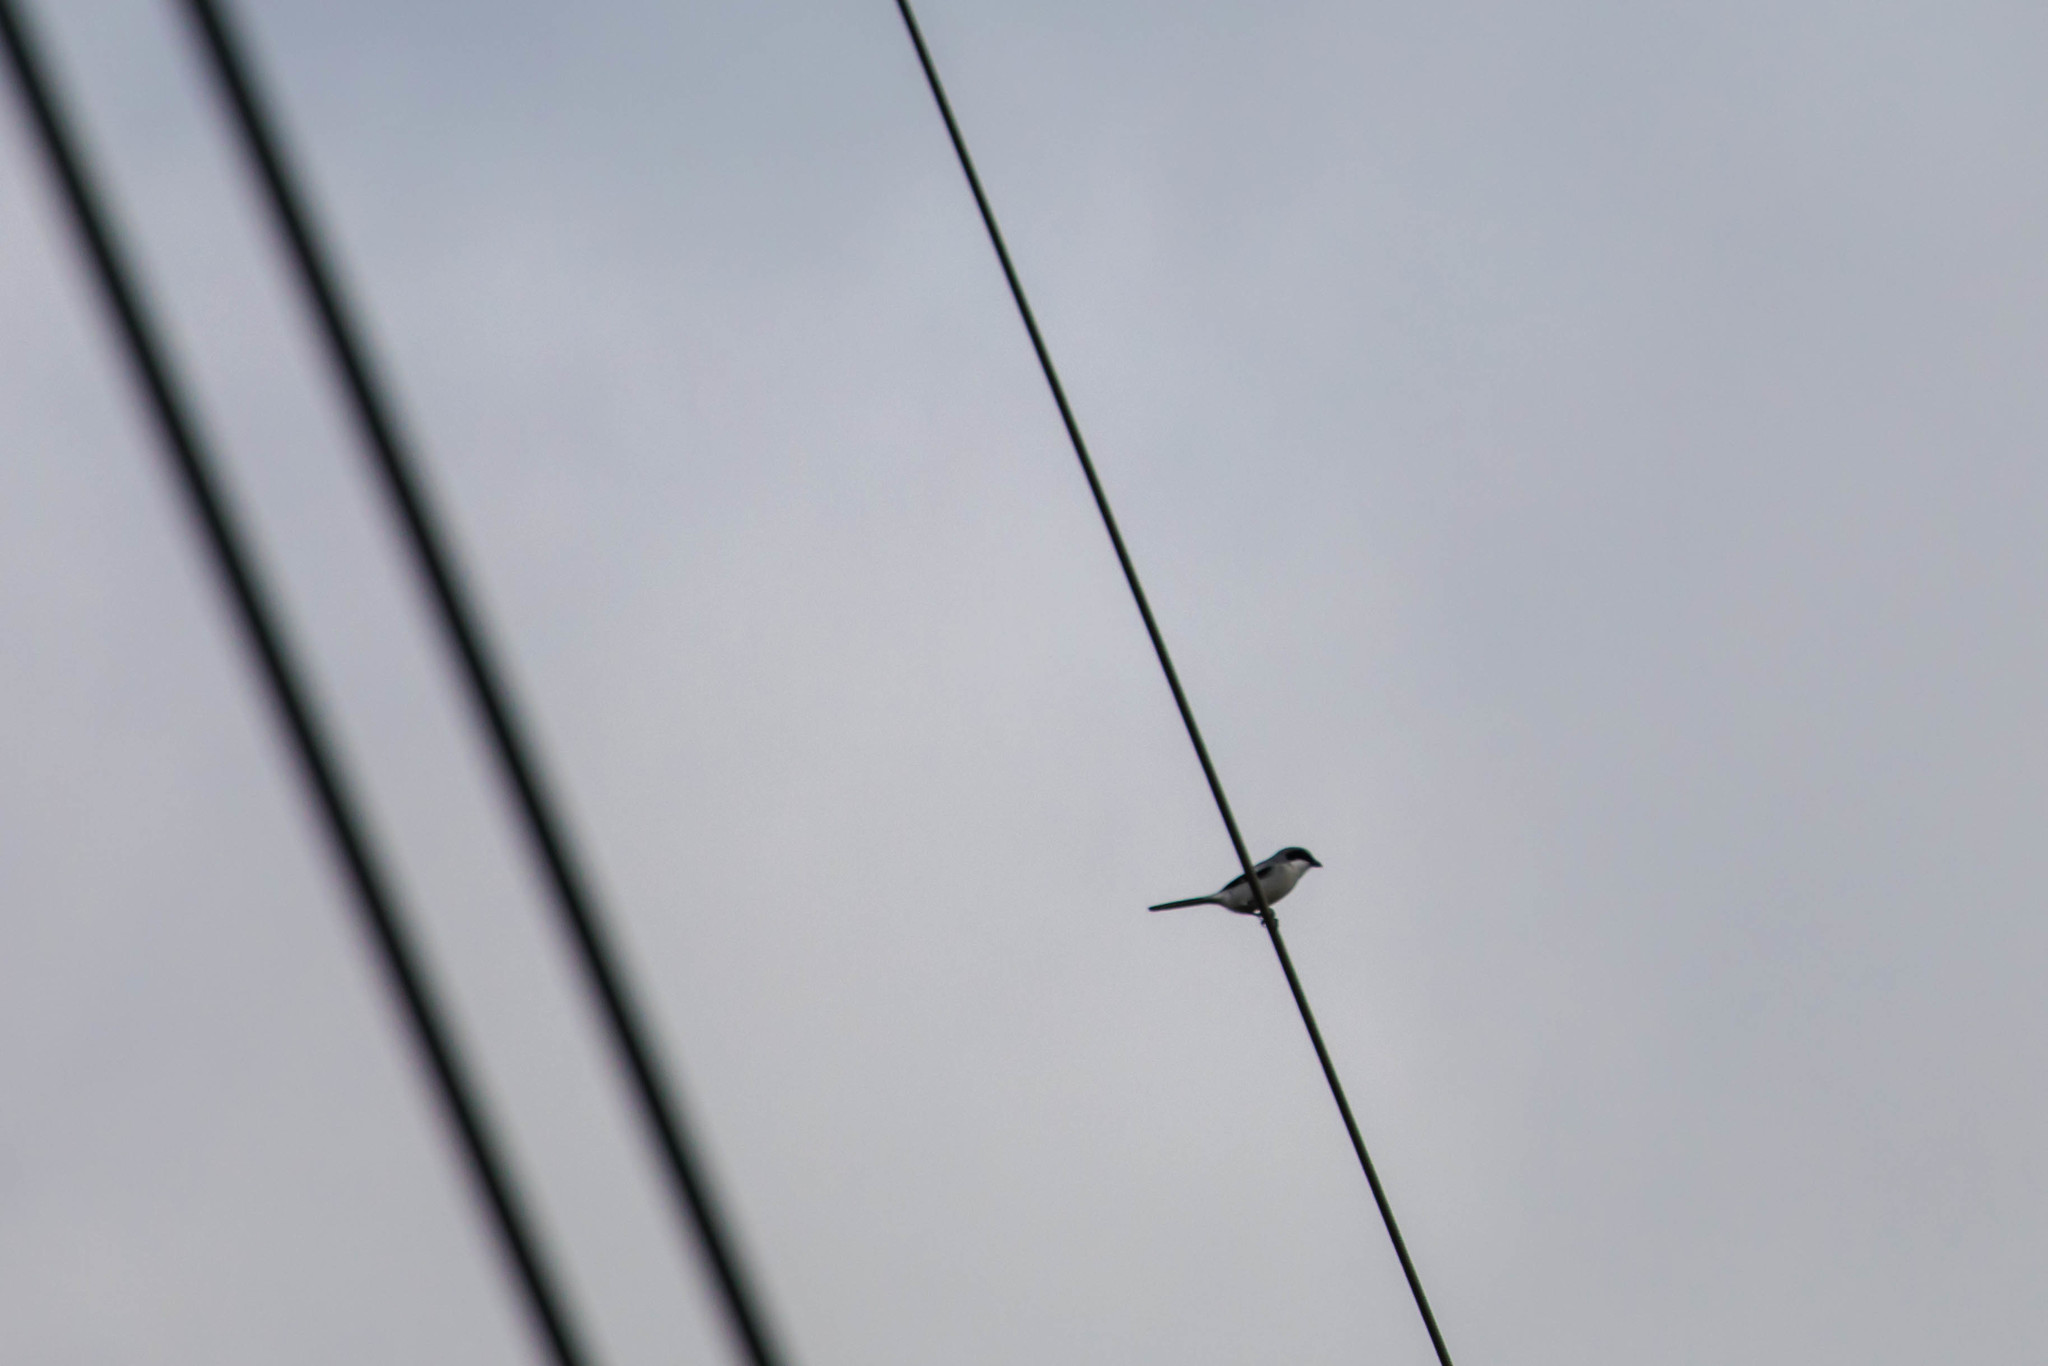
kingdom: Animalia
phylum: Chordata
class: Aves
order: Passeriformes
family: Laniidae
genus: Lanius
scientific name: Lanius ludovicianus
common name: Loggerhead shrike
